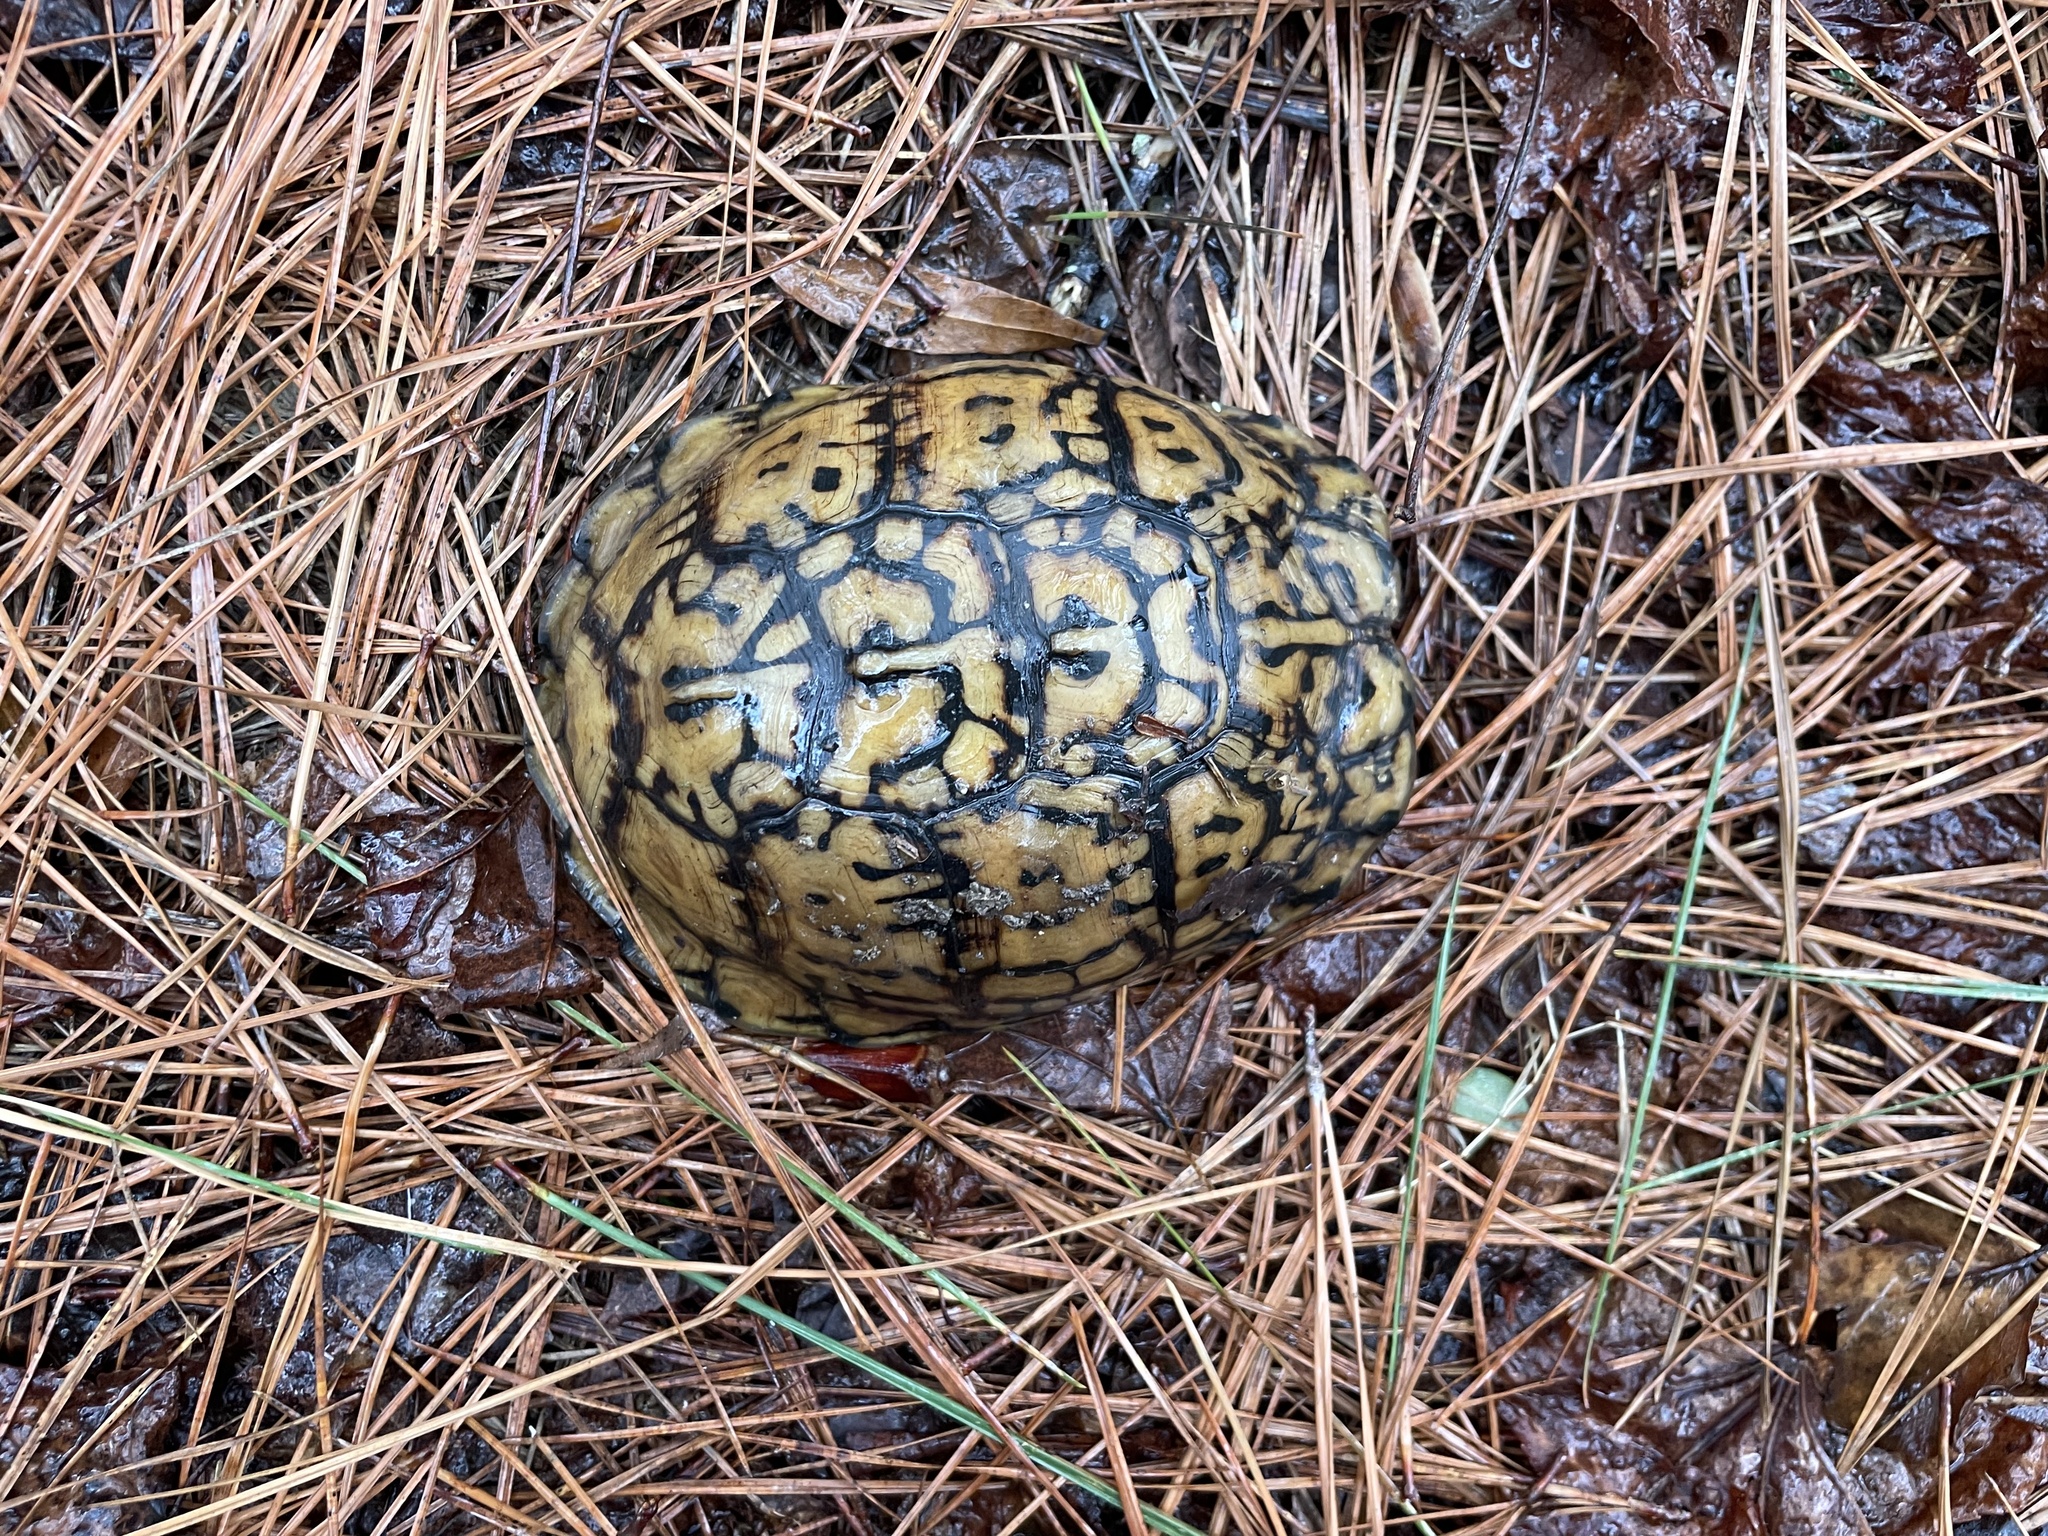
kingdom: Animalia
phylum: Chordata
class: Testudines
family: Emydidae
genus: Terrapene
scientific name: Terrapene carolina
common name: Common box turtle
